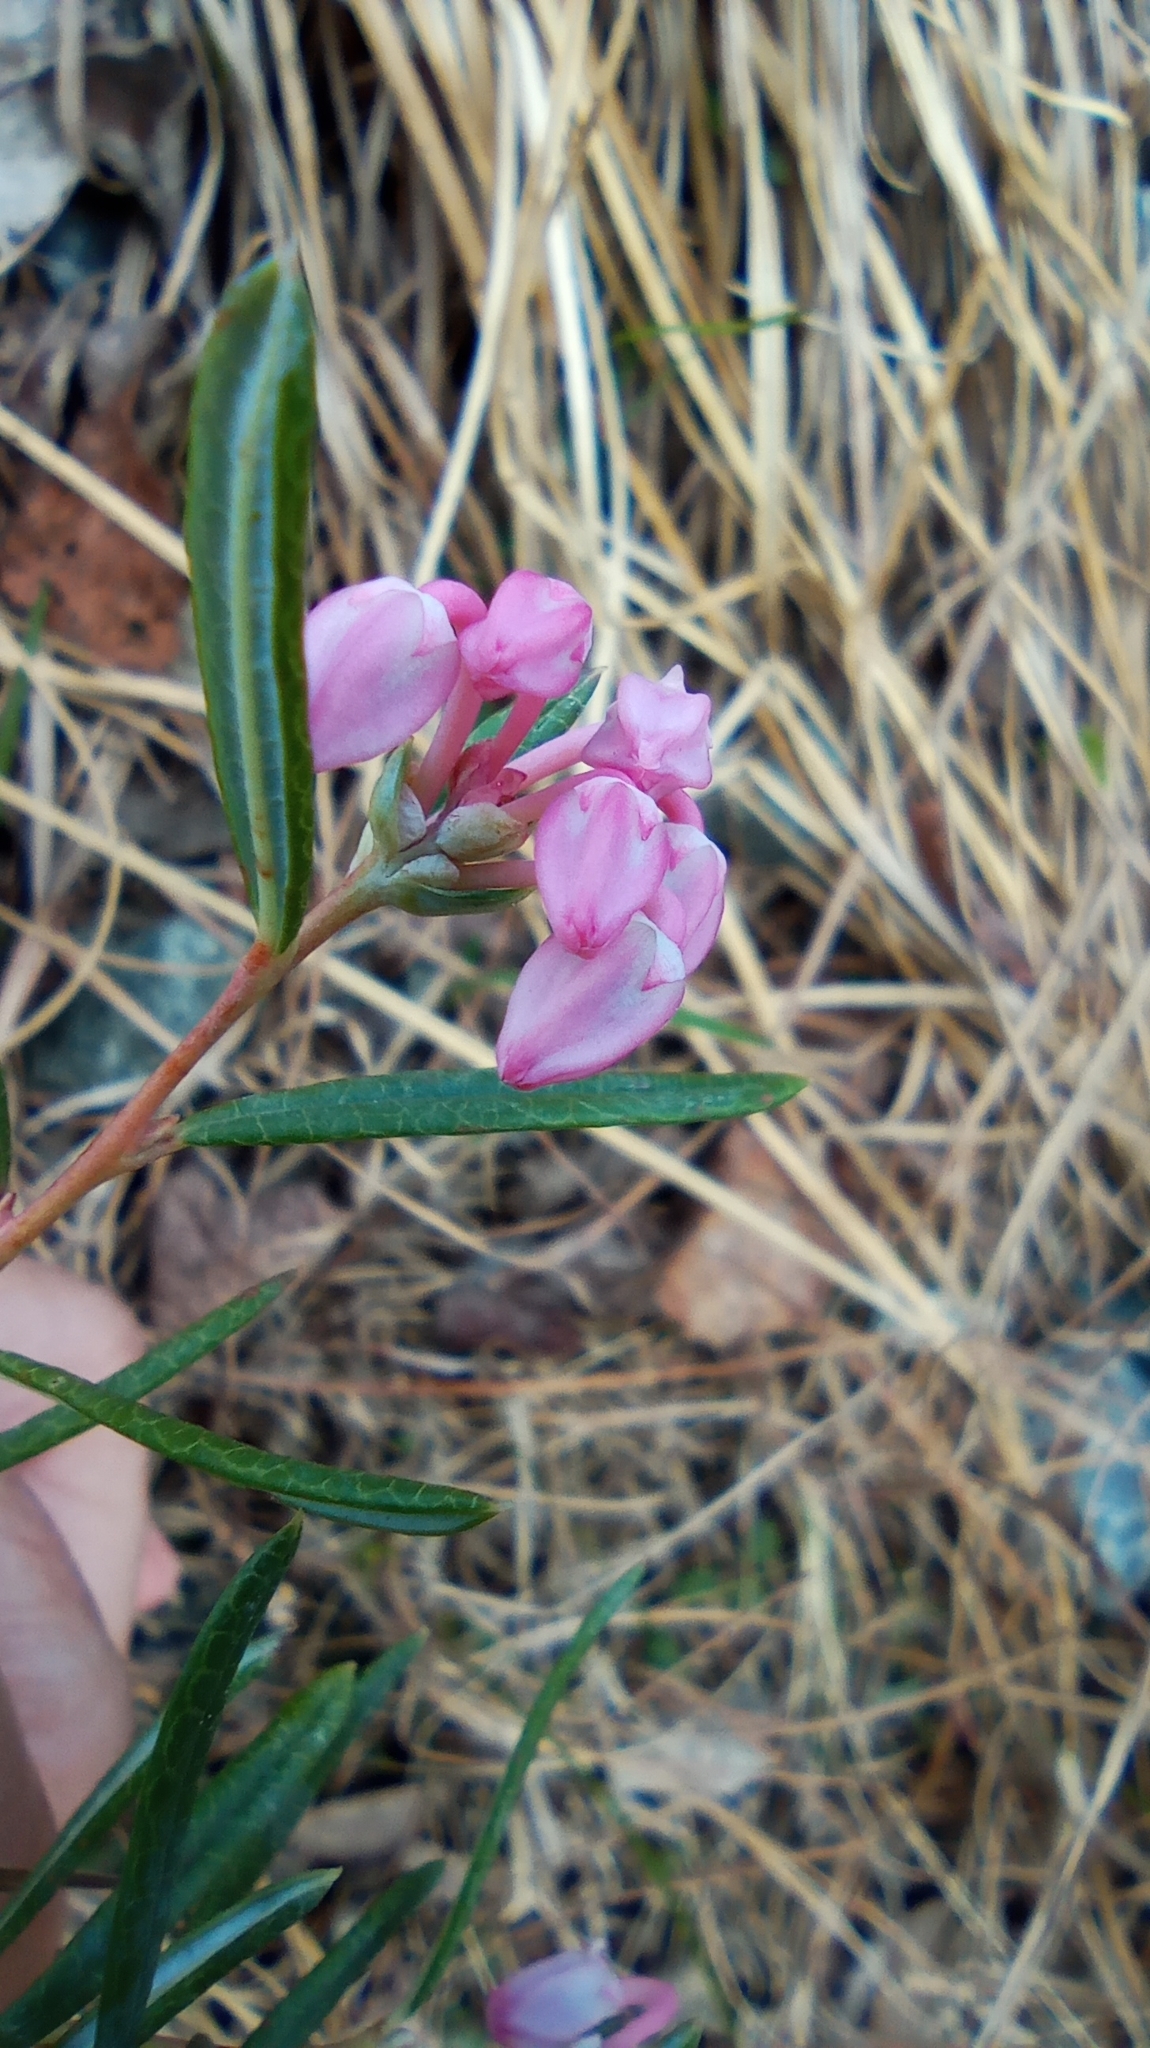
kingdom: Plantae
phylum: Tracheophyta
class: Magnoliopsida
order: Ericales
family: Ericaceae
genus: Andromeda
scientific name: Andromeda polifolia
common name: Bog-rosemary
